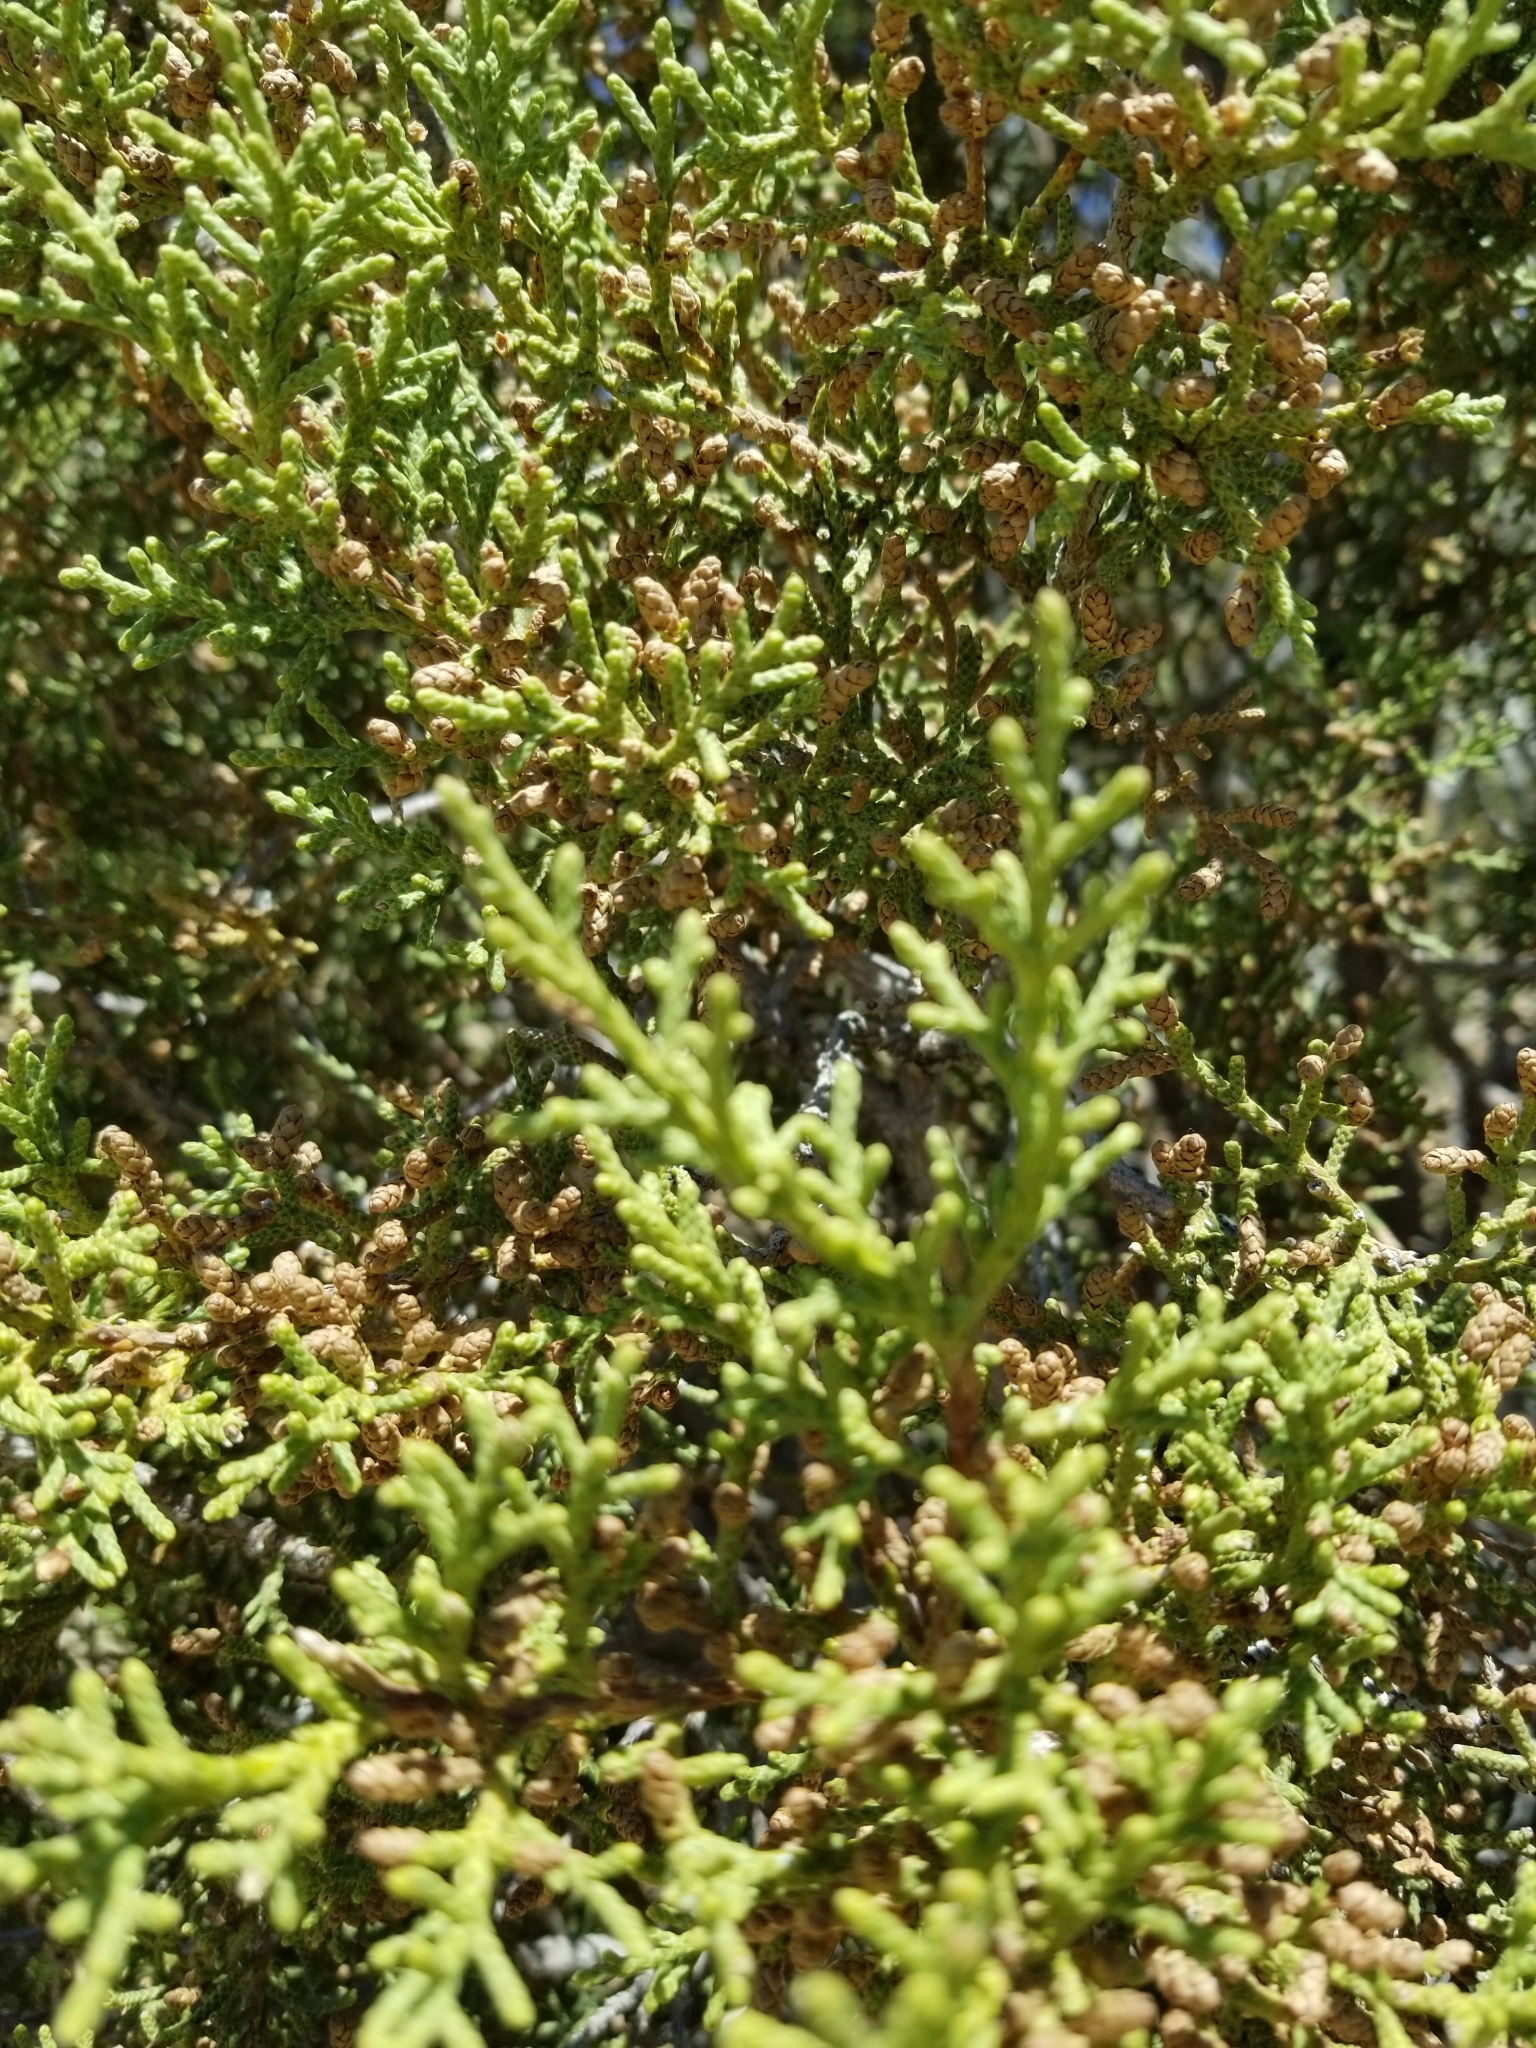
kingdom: Plantae
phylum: Tracheophyta
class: Pinopsida
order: Pinales
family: Cupressaceae
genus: Juniperus
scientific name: Juniperus californica
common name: California juniper
